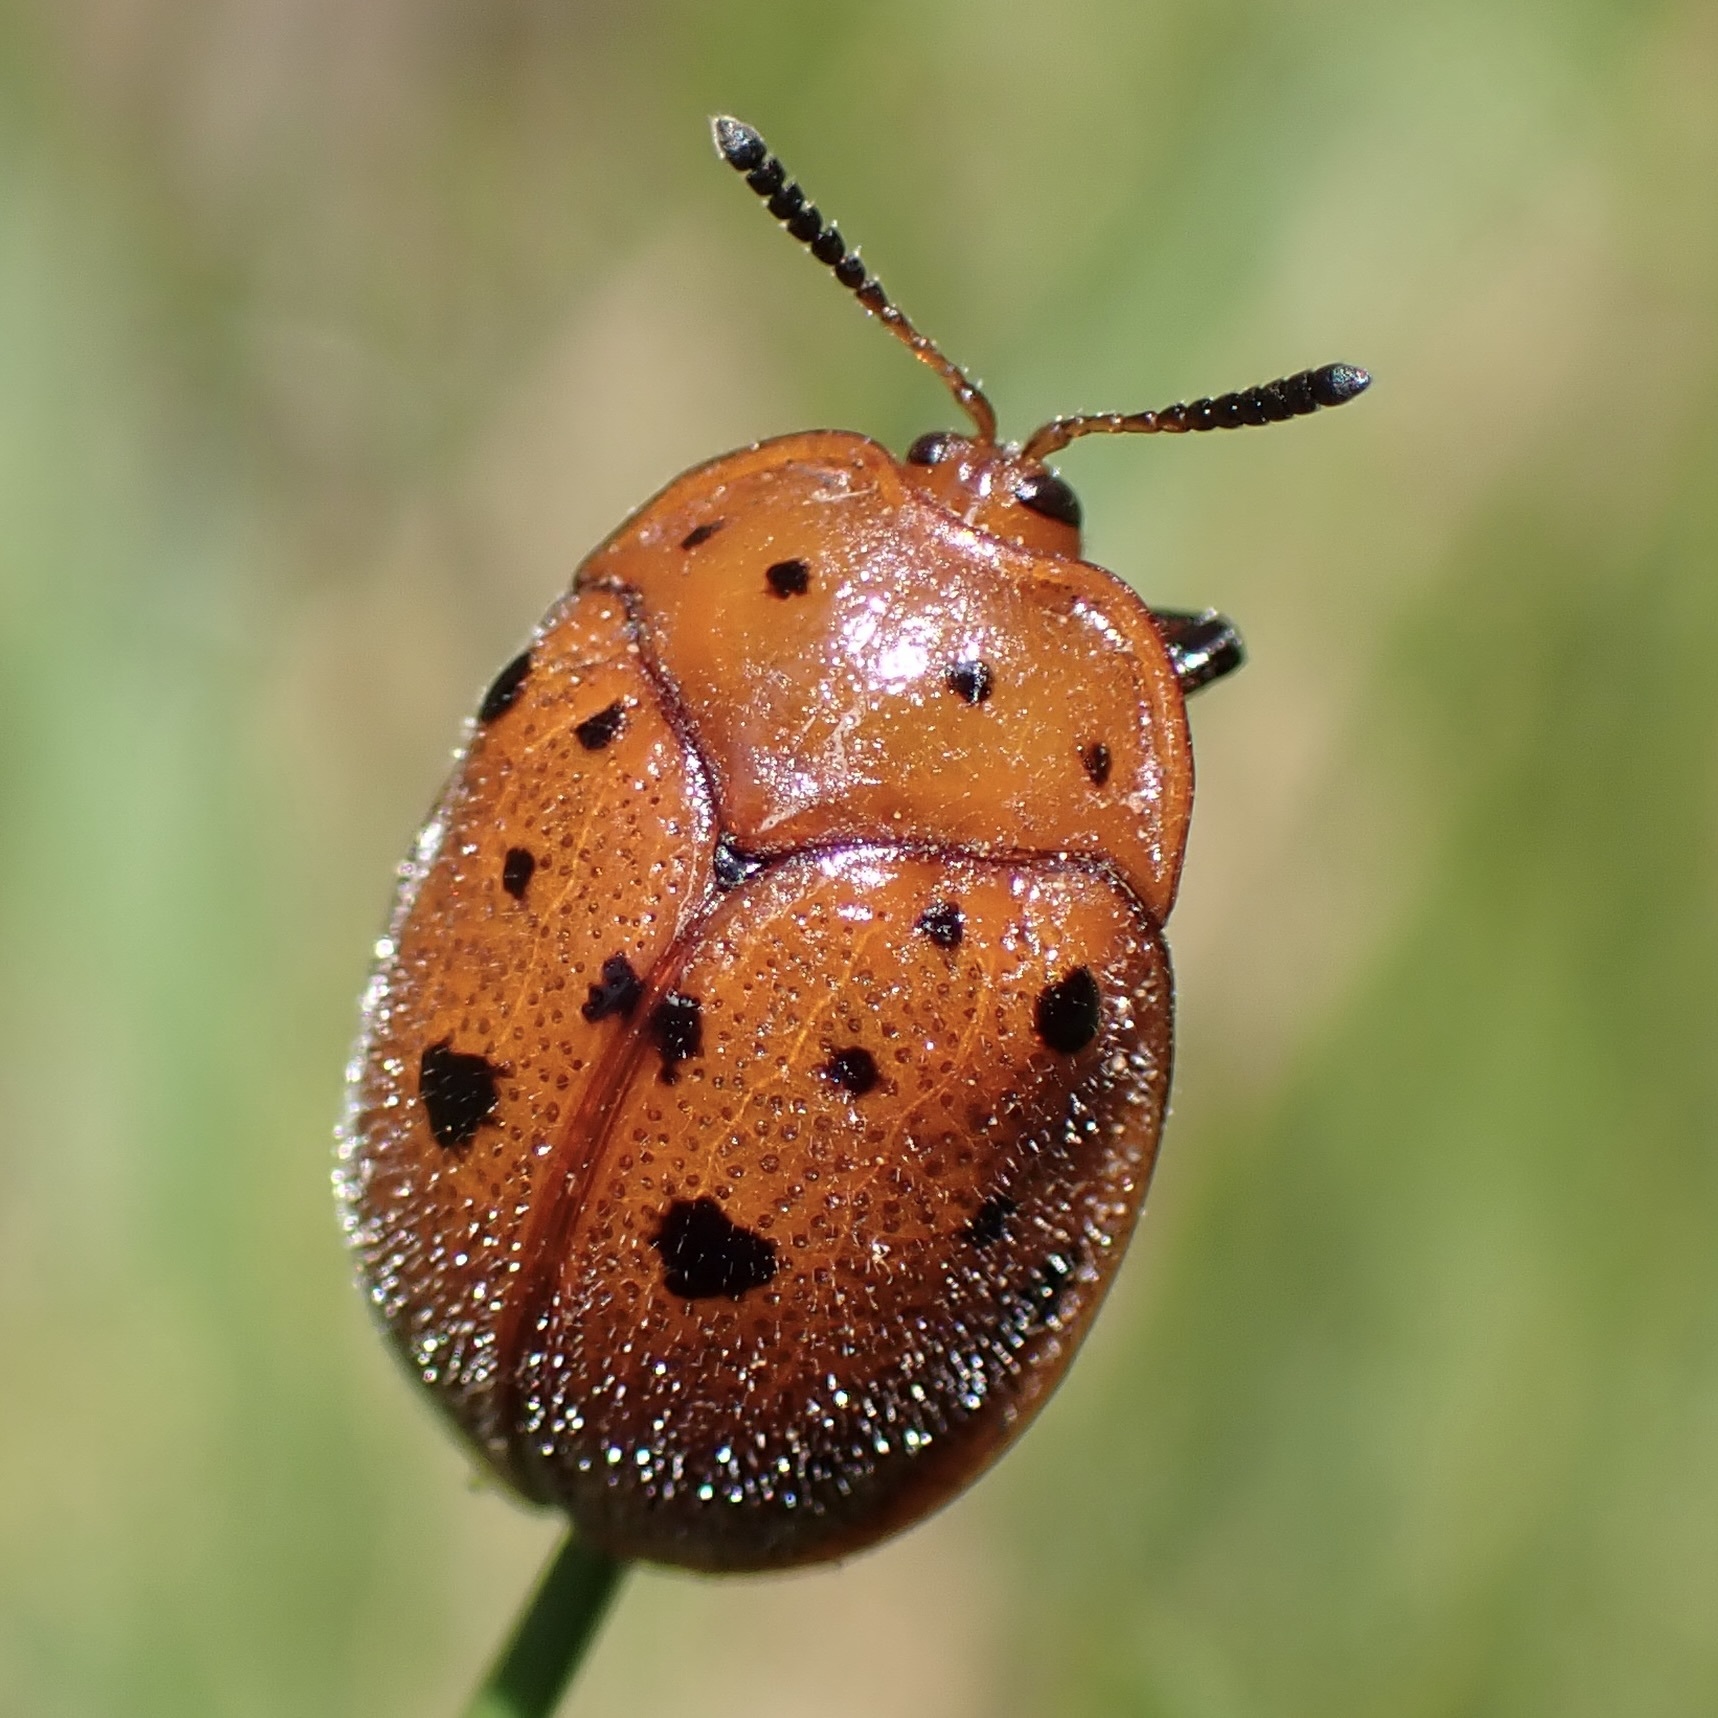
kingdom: Animalia
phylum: Arthropoda
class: Insecta
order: Coleoptera
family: Chrysomelidae
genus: Chelymorpha
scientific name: Chelymorpha phytophagica
